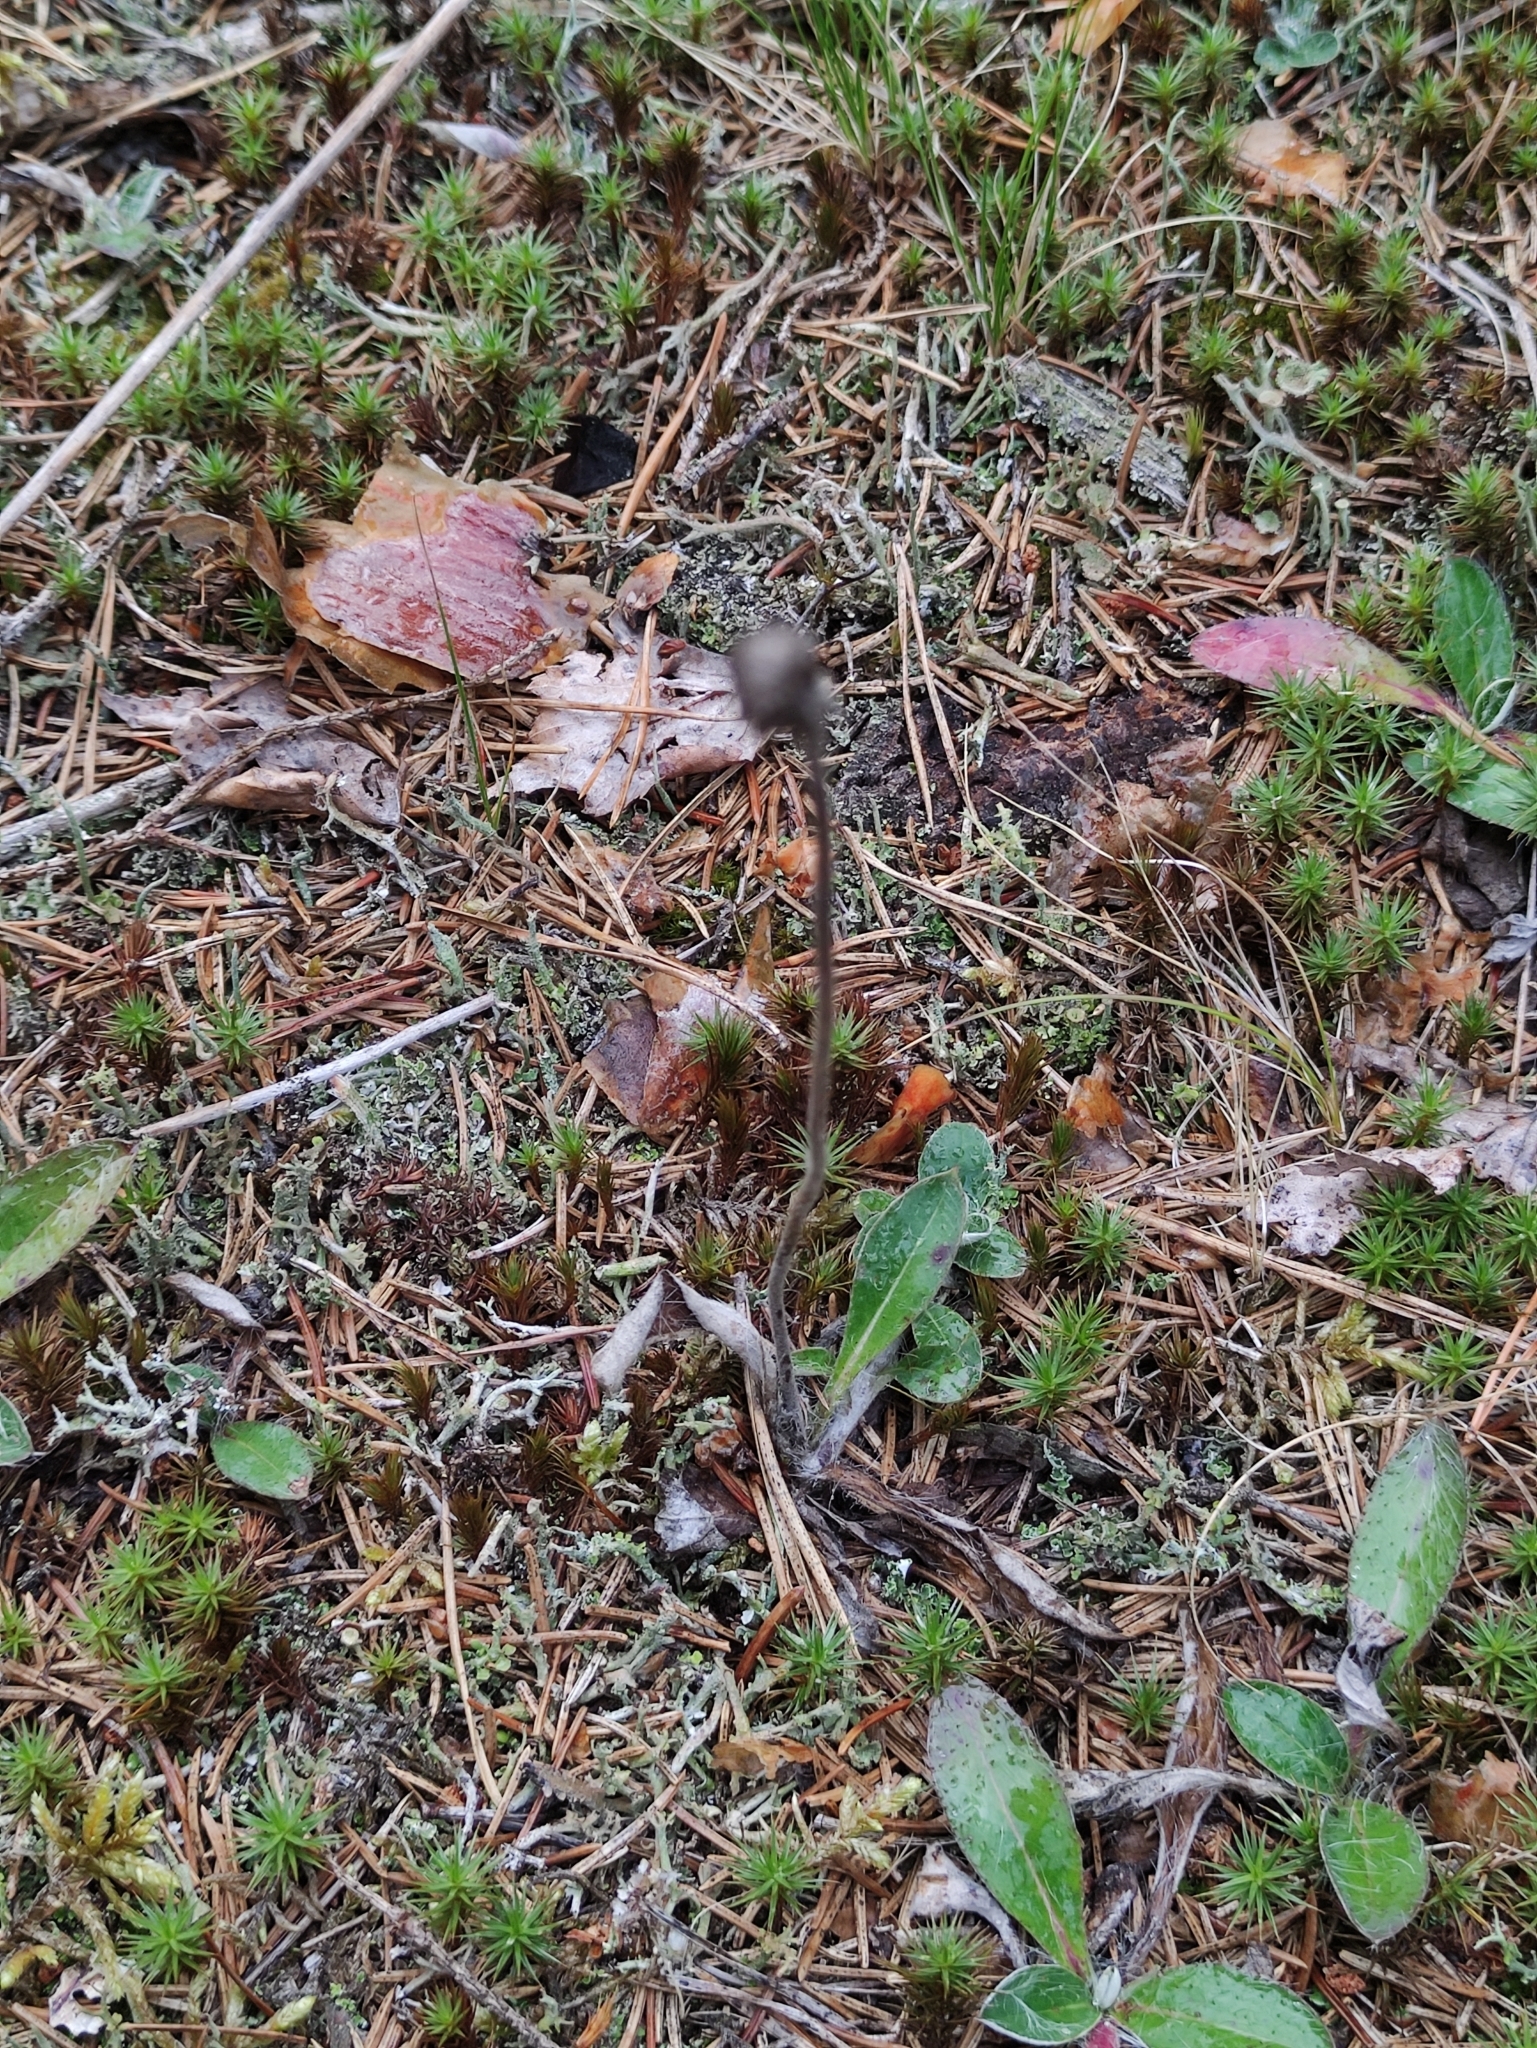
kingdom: Plantae
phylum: Tracheophyta
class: Magnoliopsida
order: Asterales
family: Asteraceae
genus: Pilosella
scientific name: Pilosella officinarum
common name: Mouse-ear hawkweed
